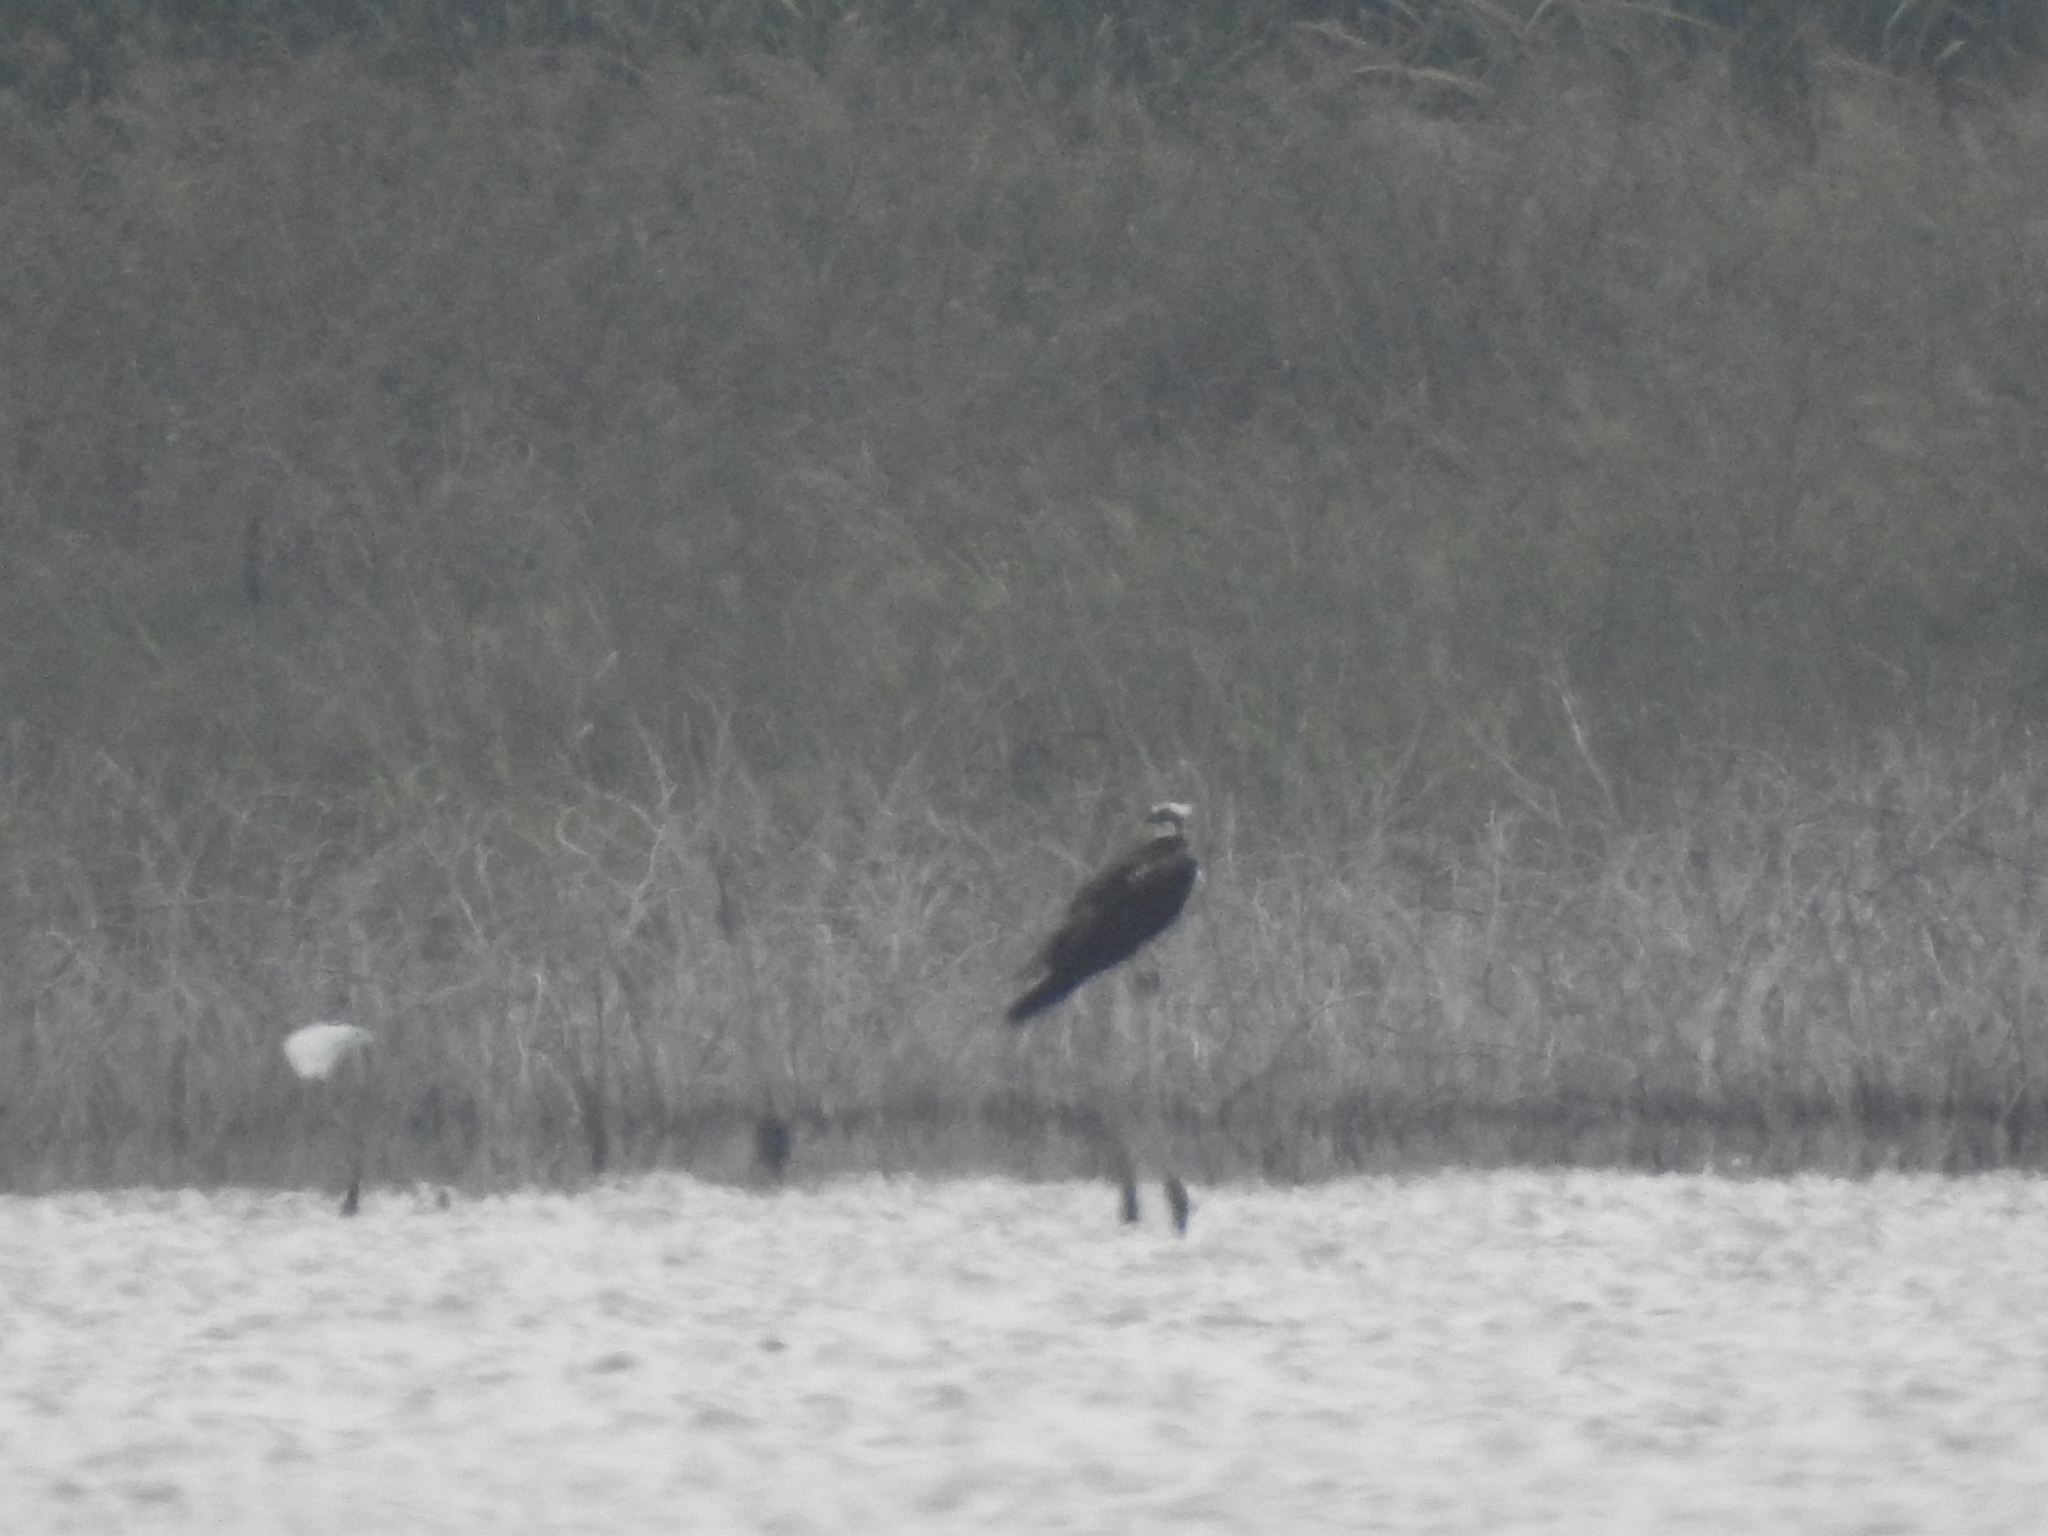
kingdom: Animalia
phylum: Chordata
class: Aves
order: Accipitriformes
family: Pandionidae
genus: Pandion
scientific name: Pandion haliaetus
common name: Osprey
